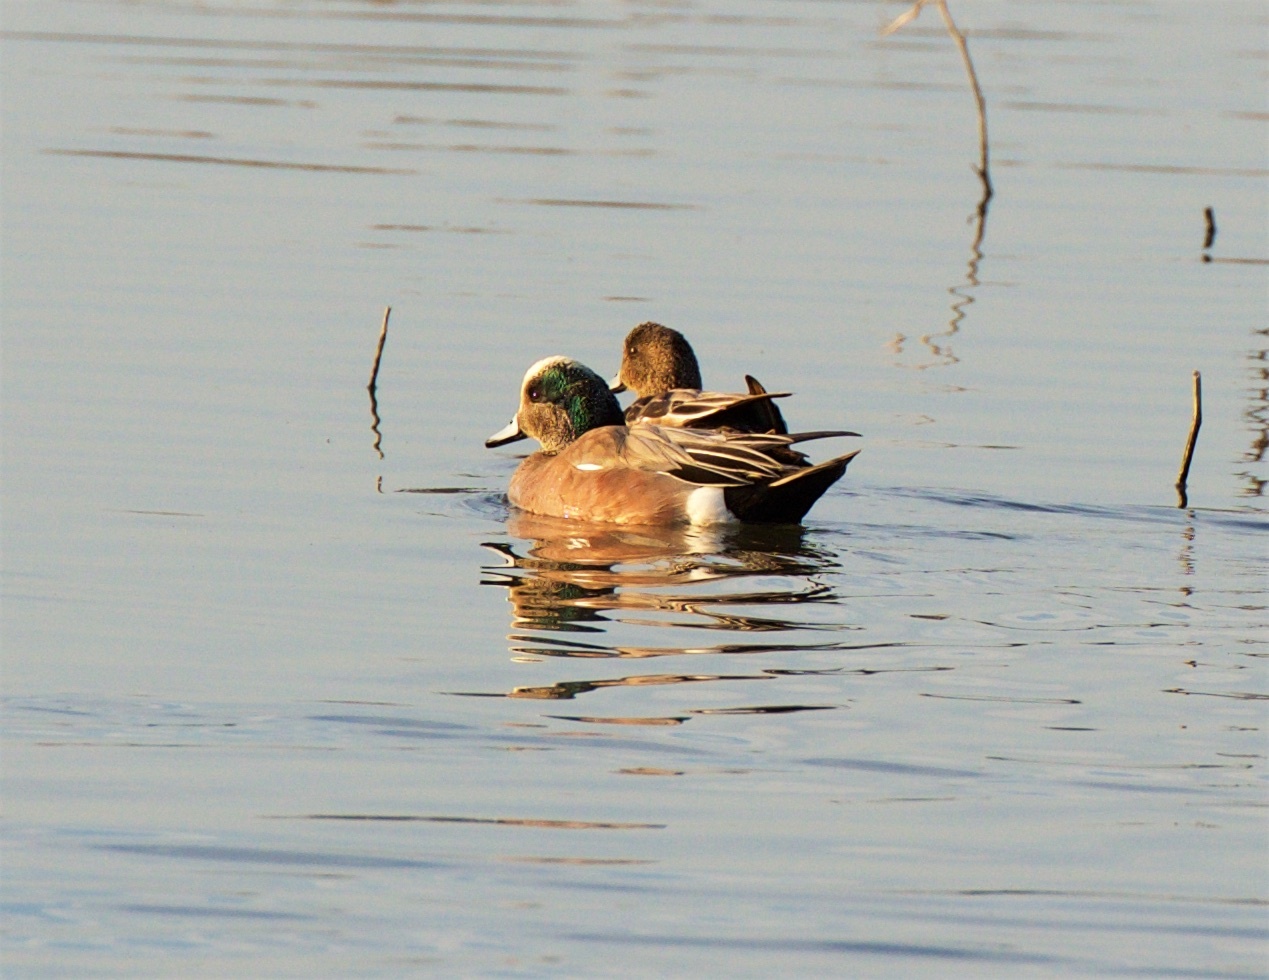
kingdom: Animalia
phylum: Chordata
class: Aves
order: Anseriformes
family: Anatidae
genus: Mareca
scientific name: Mareca americana
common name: American wigeon
